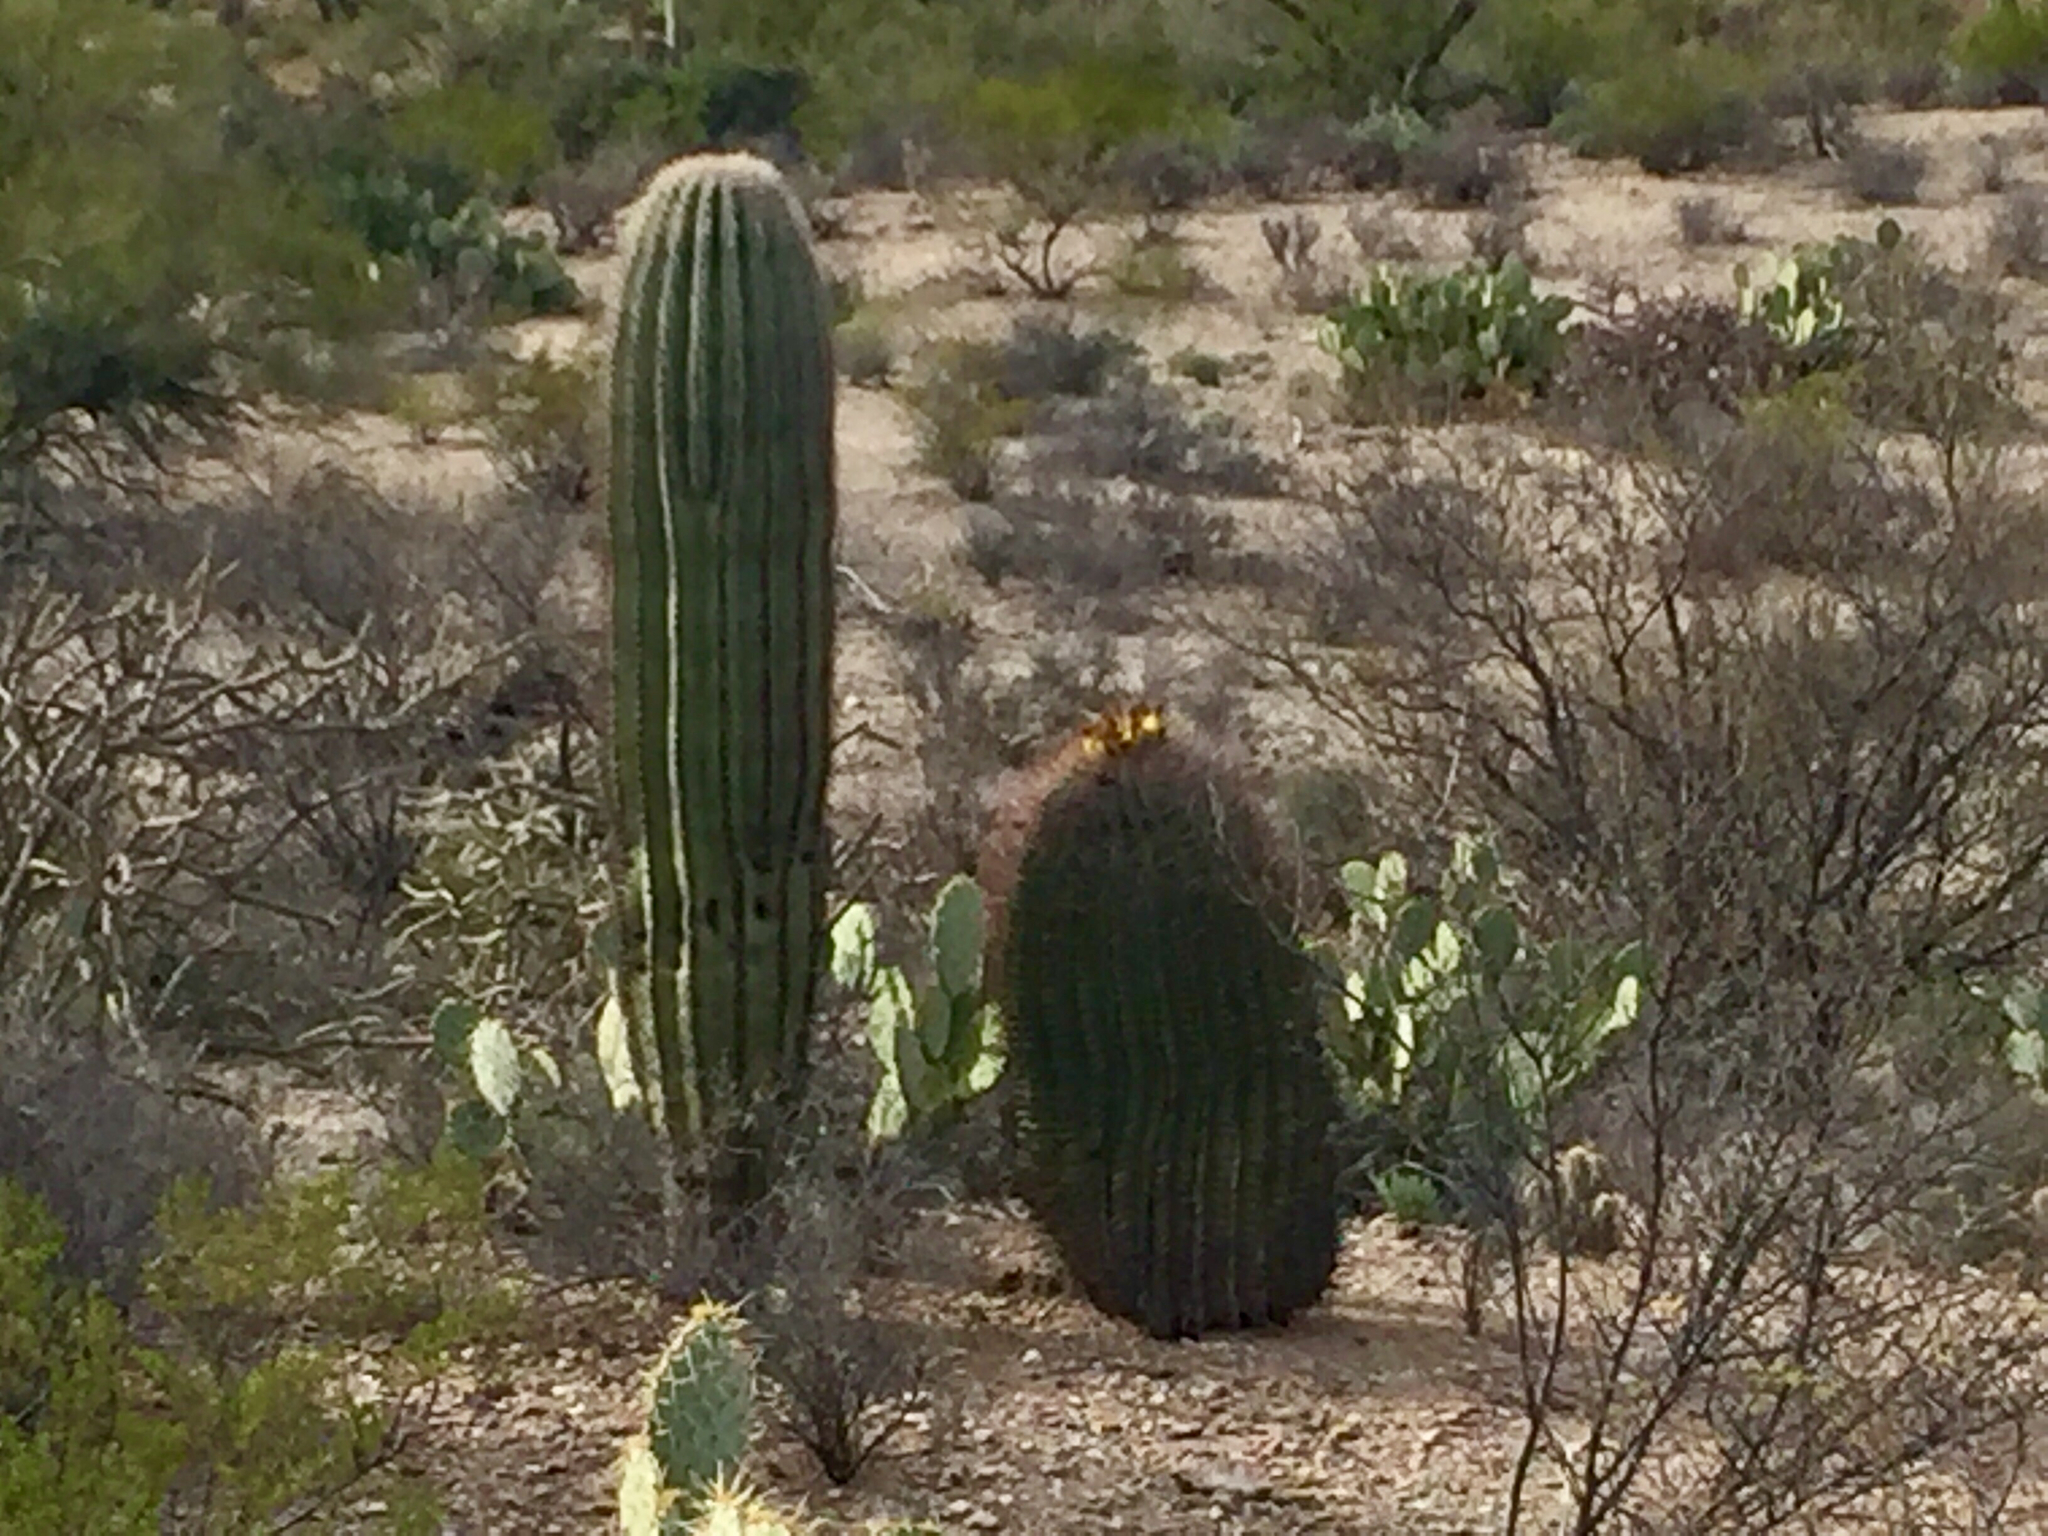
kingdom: Plantae
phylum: Tracheophyta
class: Magnoliopsida
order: Caryophyllales
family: Cactaceae
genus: Ferocactus
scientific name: Ferocactus wislizeni
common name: Candy barrel cactus
